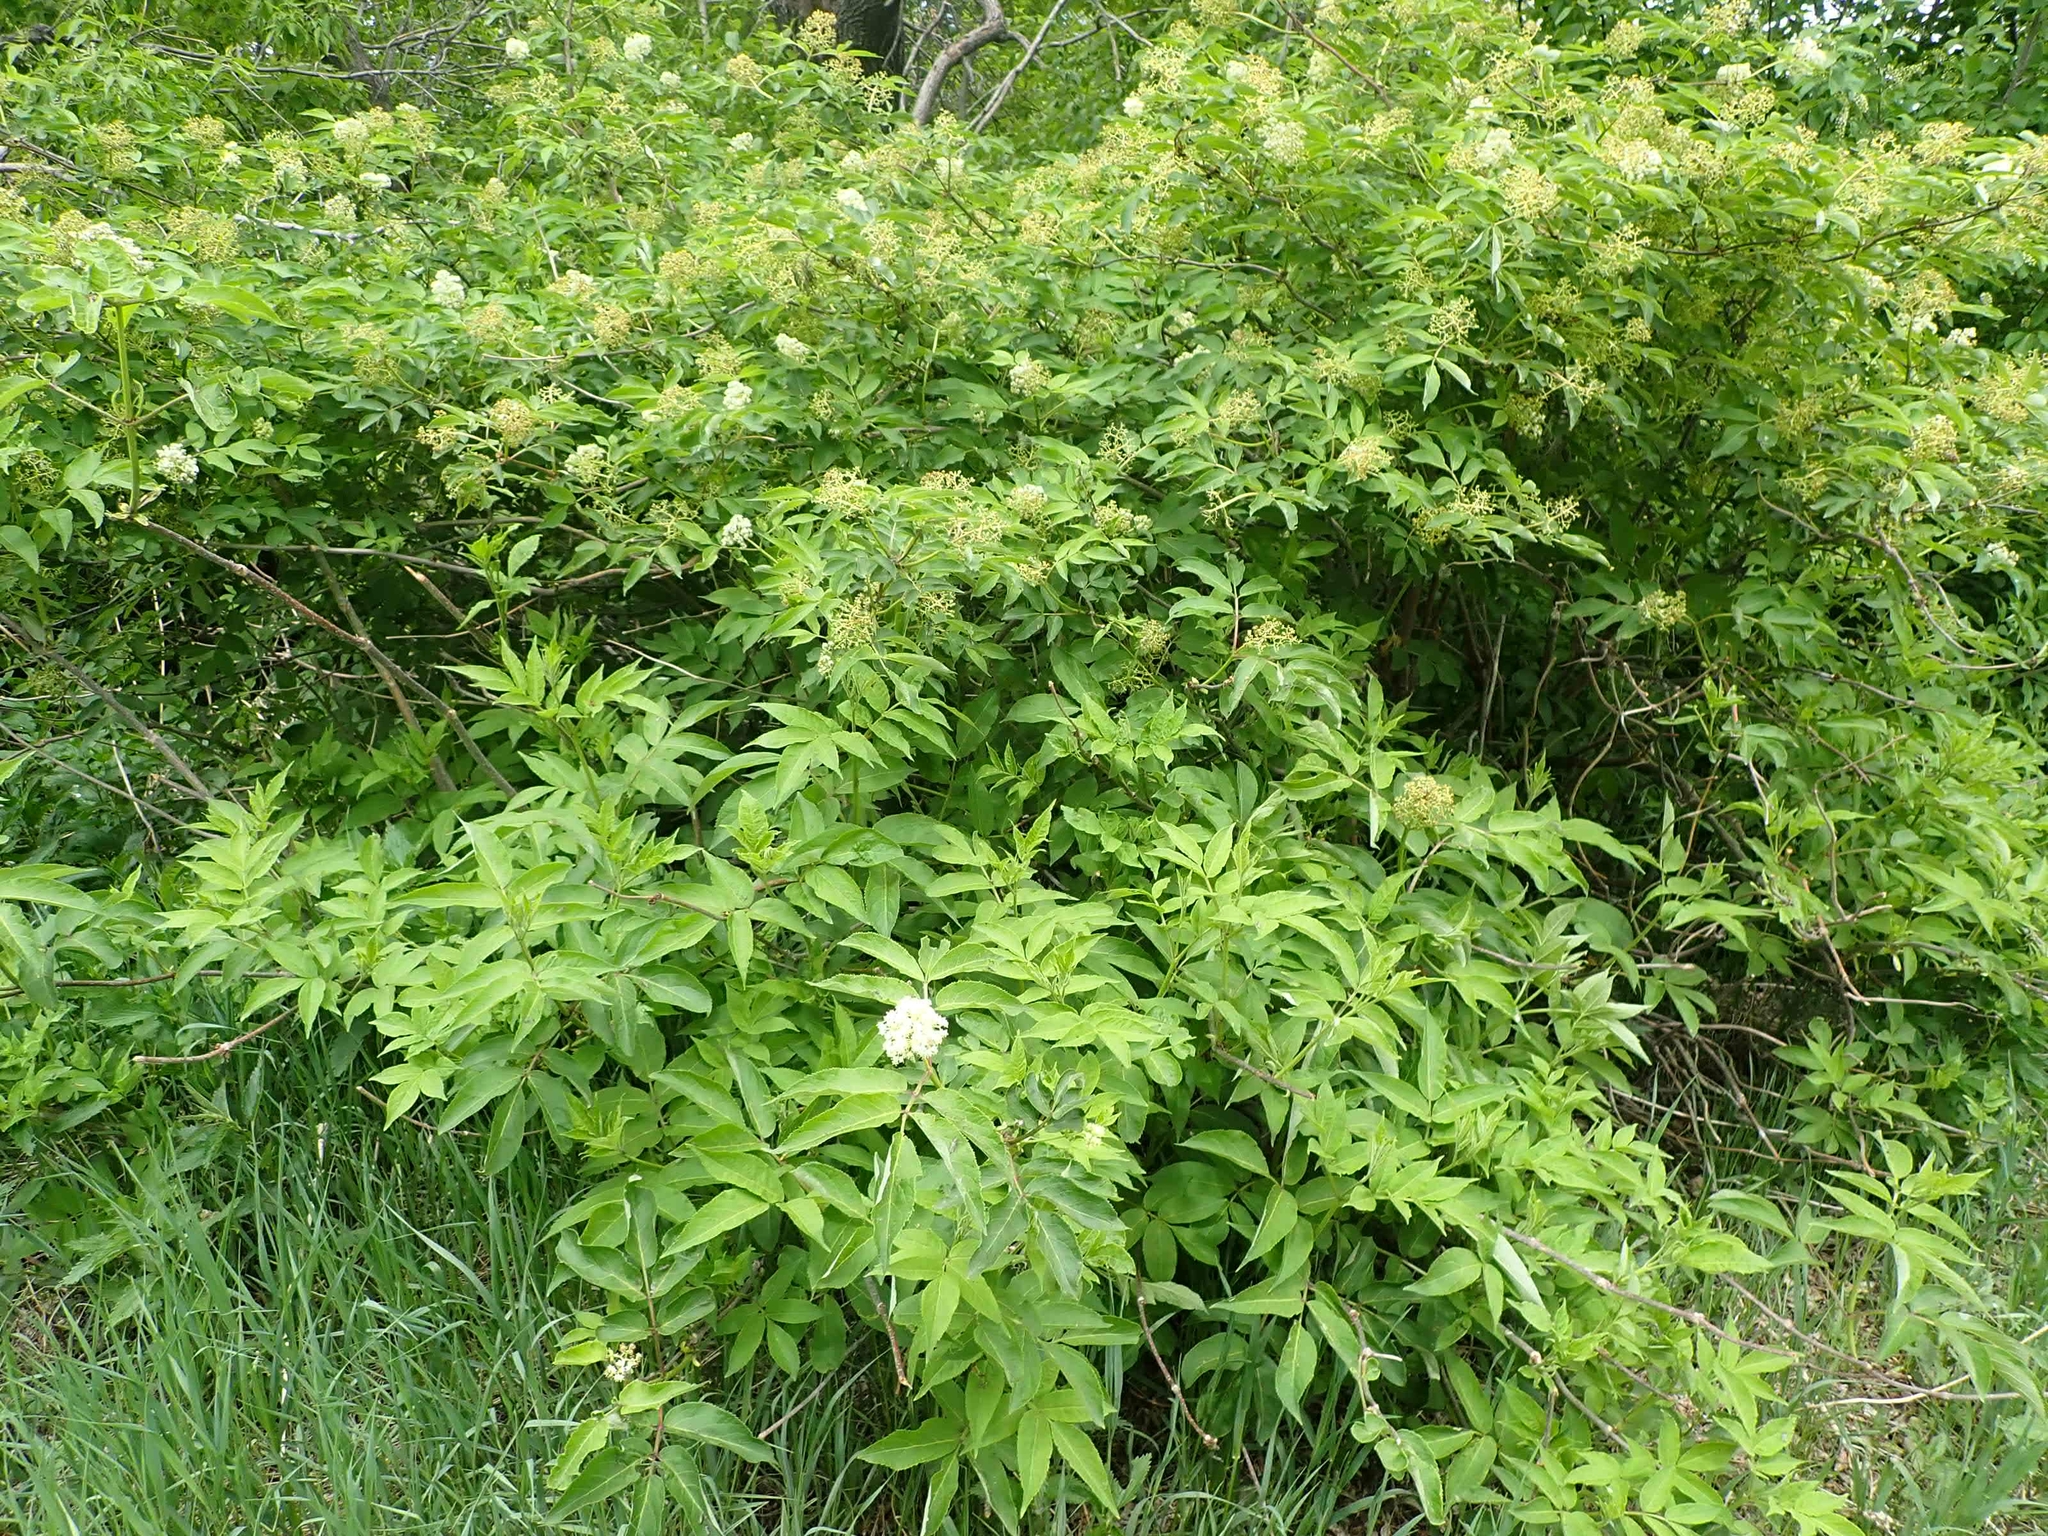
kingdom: Plantae
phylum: Tracheophyta
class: Magnoliopsida
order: Dipsacales
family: Viburnaceae
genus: Sambucus
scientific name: Sambucus racemosa
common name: Red-berried elder
